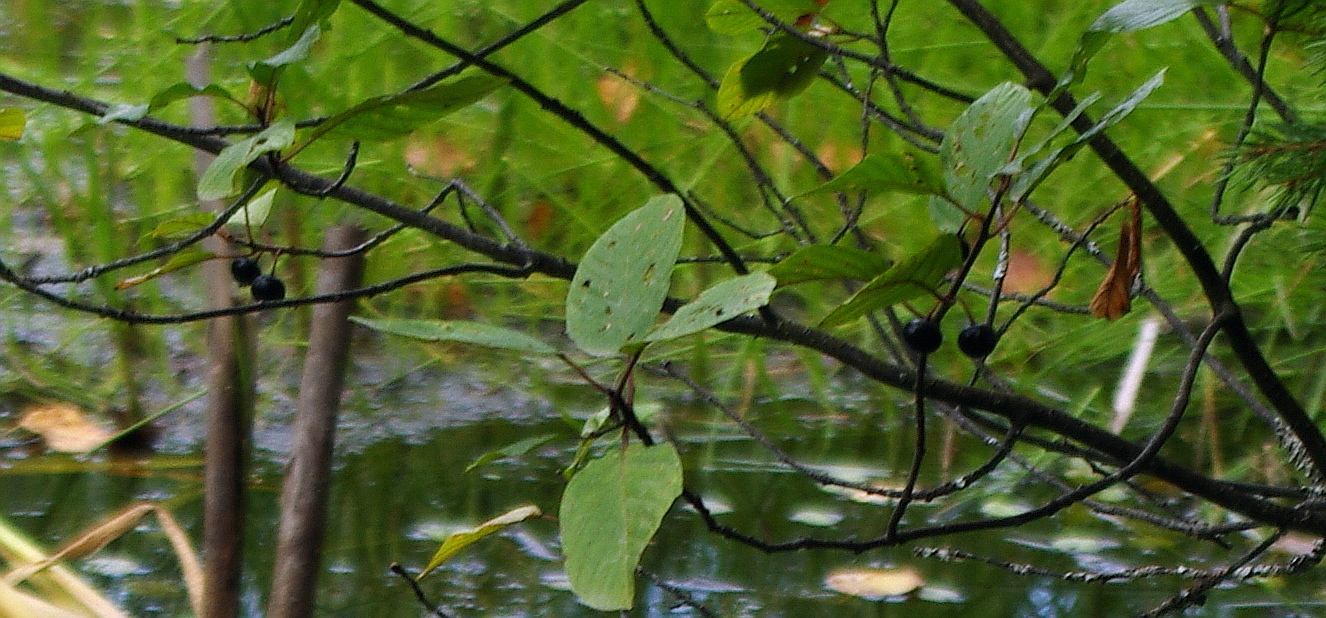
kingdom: Plantae
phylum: Tracheophyta
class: Magnoliopsida
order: Rosales
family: Rhamnaceae
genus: Frangula
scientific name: Frangula alnus
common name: Alder buckthorn
